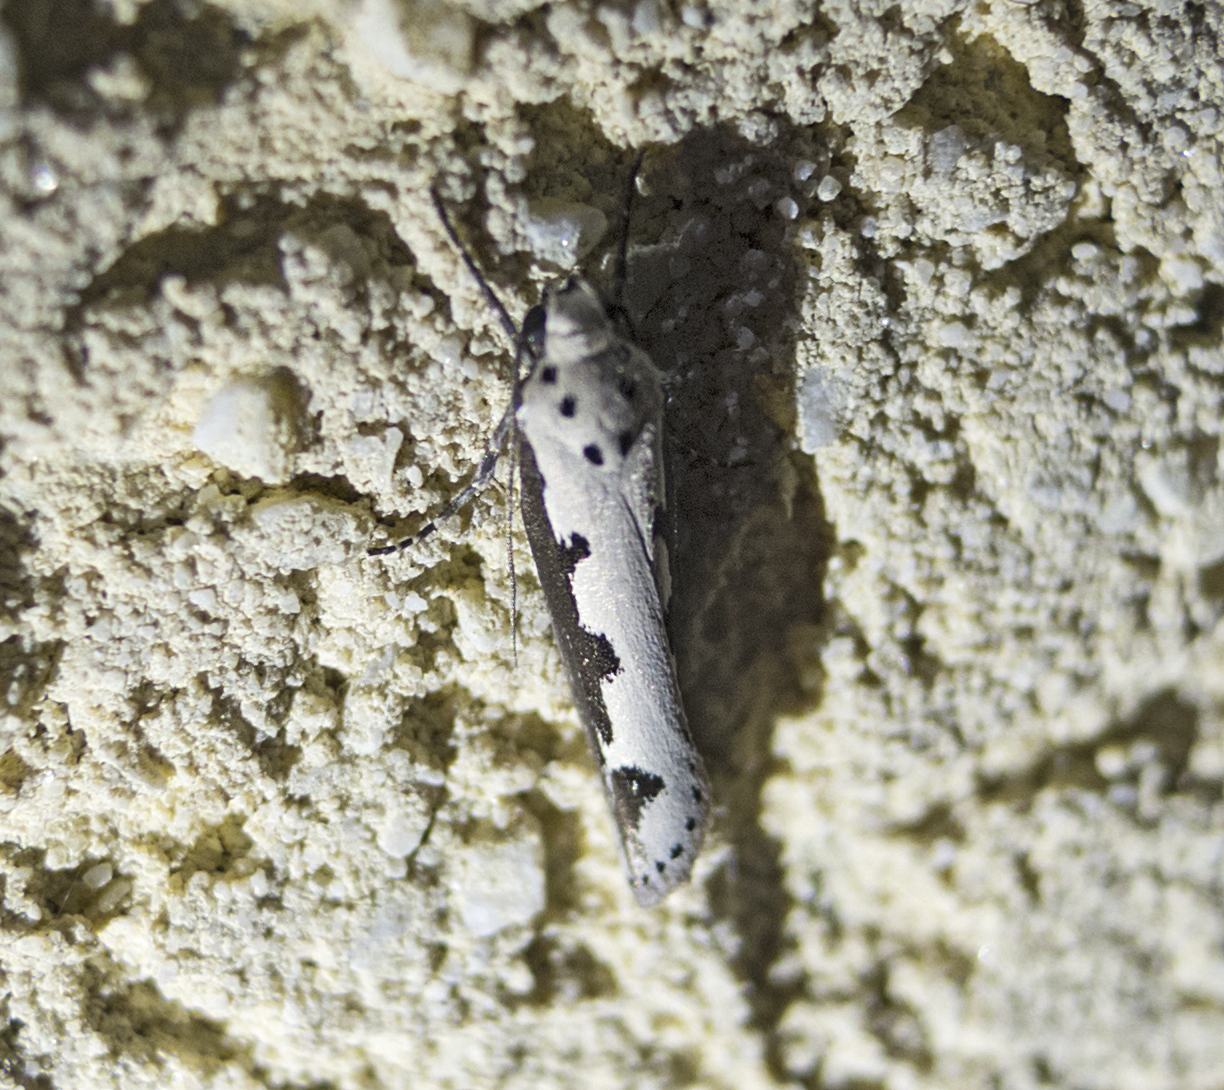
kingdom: Animalia
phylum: Arthropoda
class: Insecta
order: Lepidoptera
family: Ethmiidae
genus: Ethmia
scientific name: Ethmia bipunctella
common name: Bordered ermel
